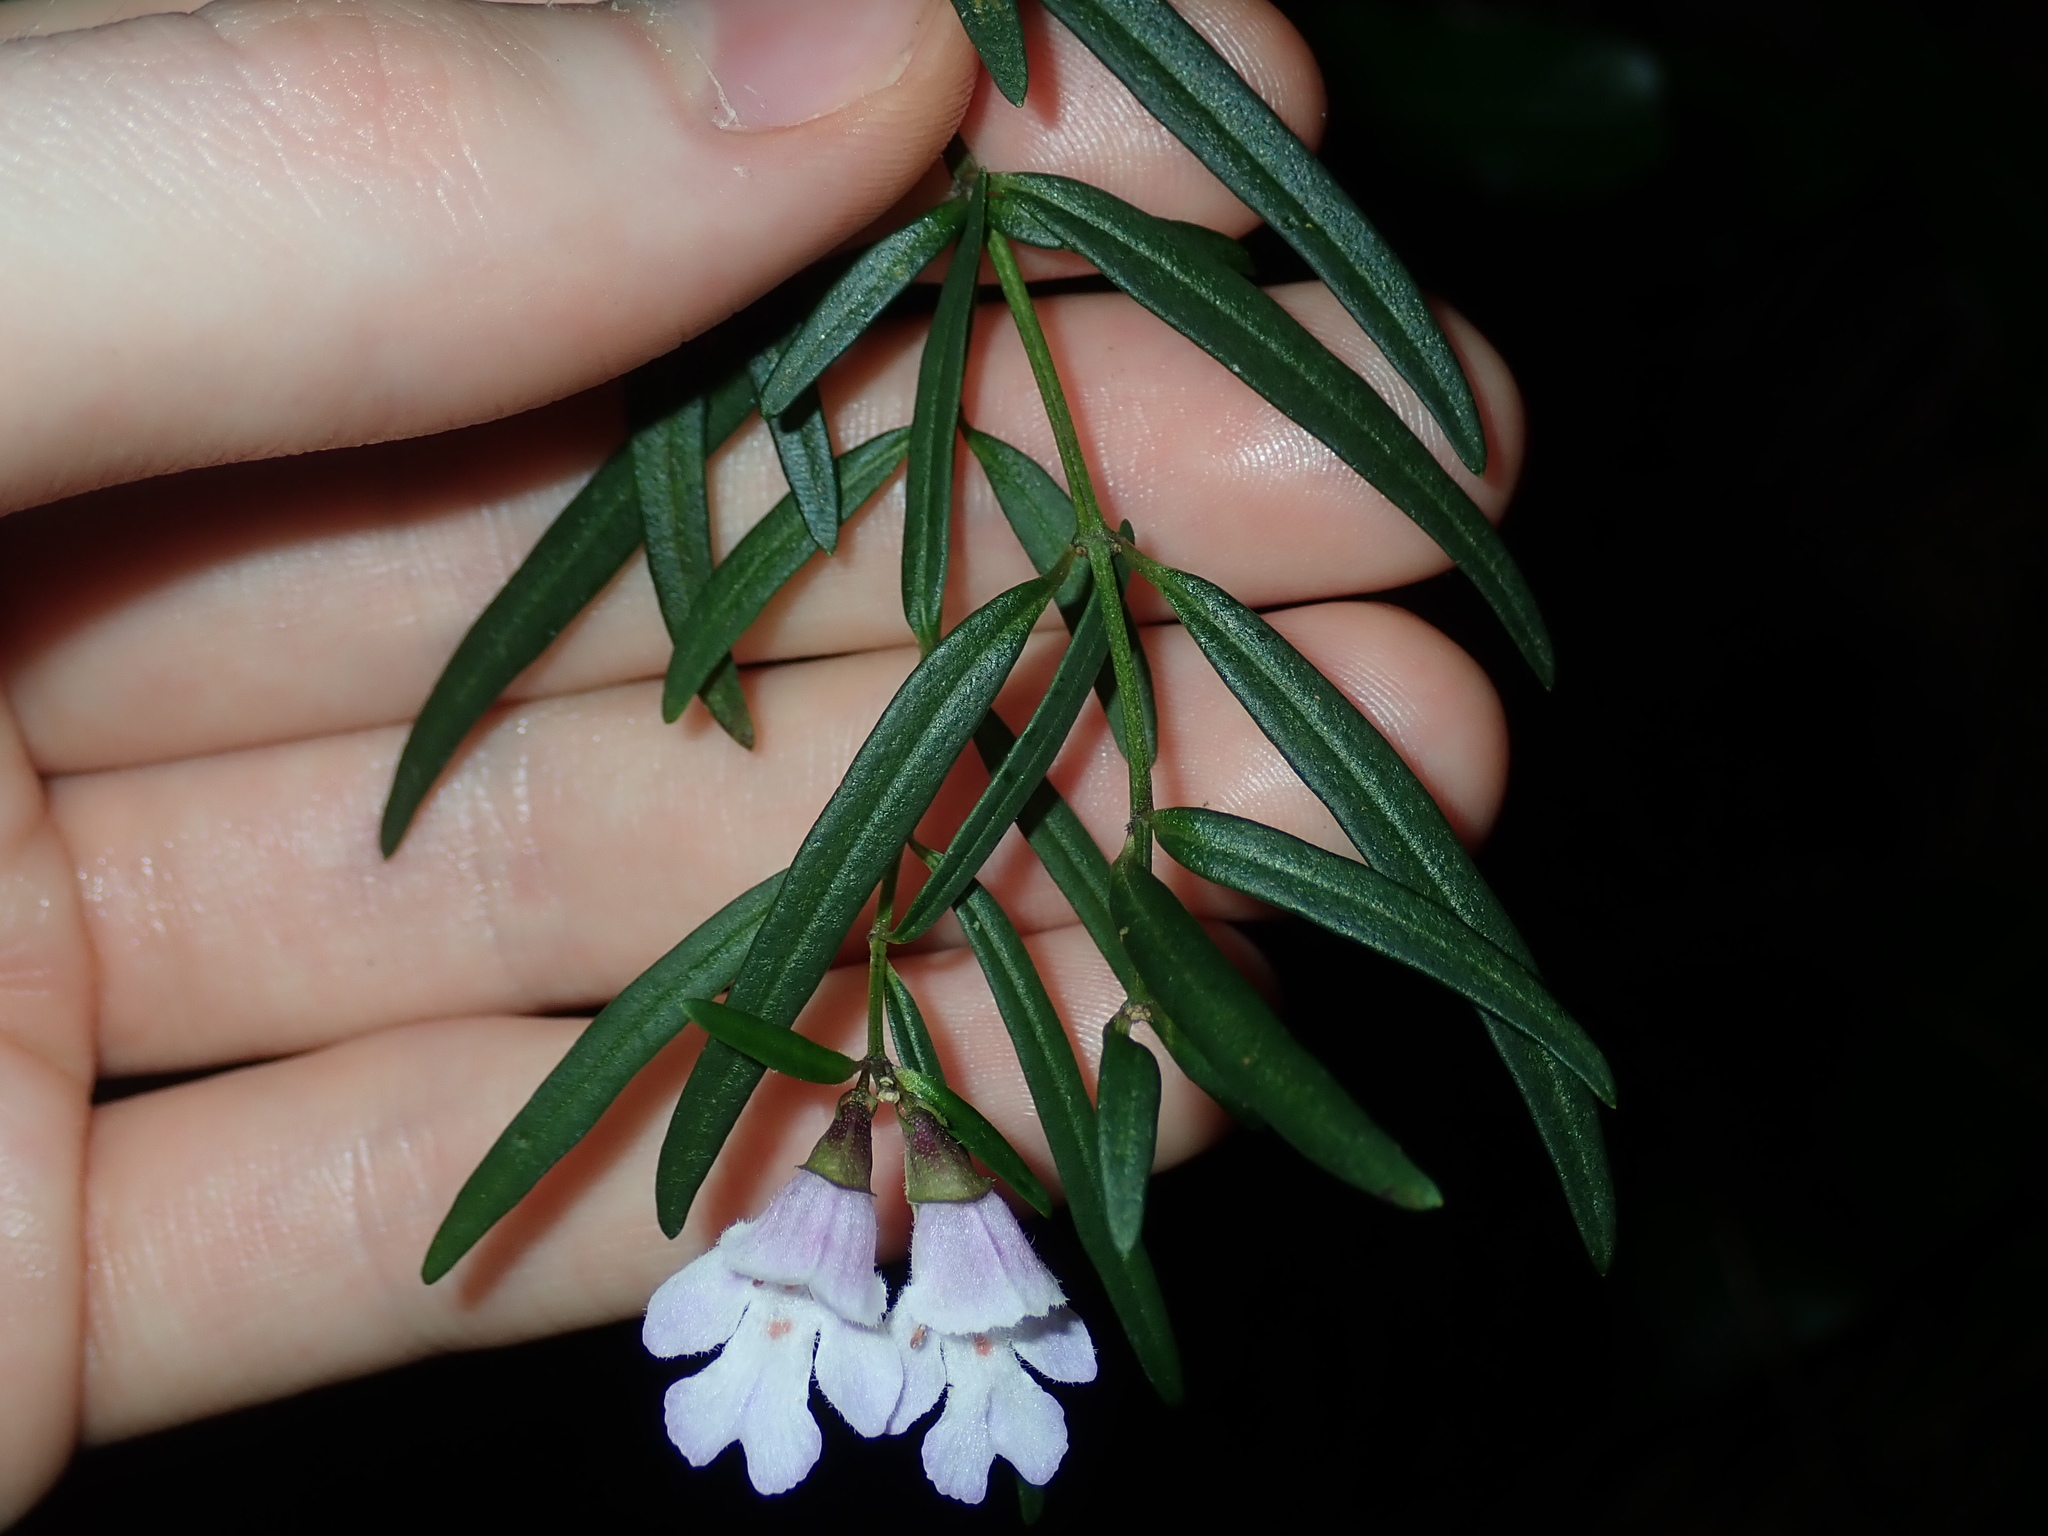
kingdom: Plantae
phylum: Tracheophyta
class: Magnoliopsida
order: Lamiales
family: Lamiaceae
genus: Prostanthera
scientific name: Prostanthera linearis
